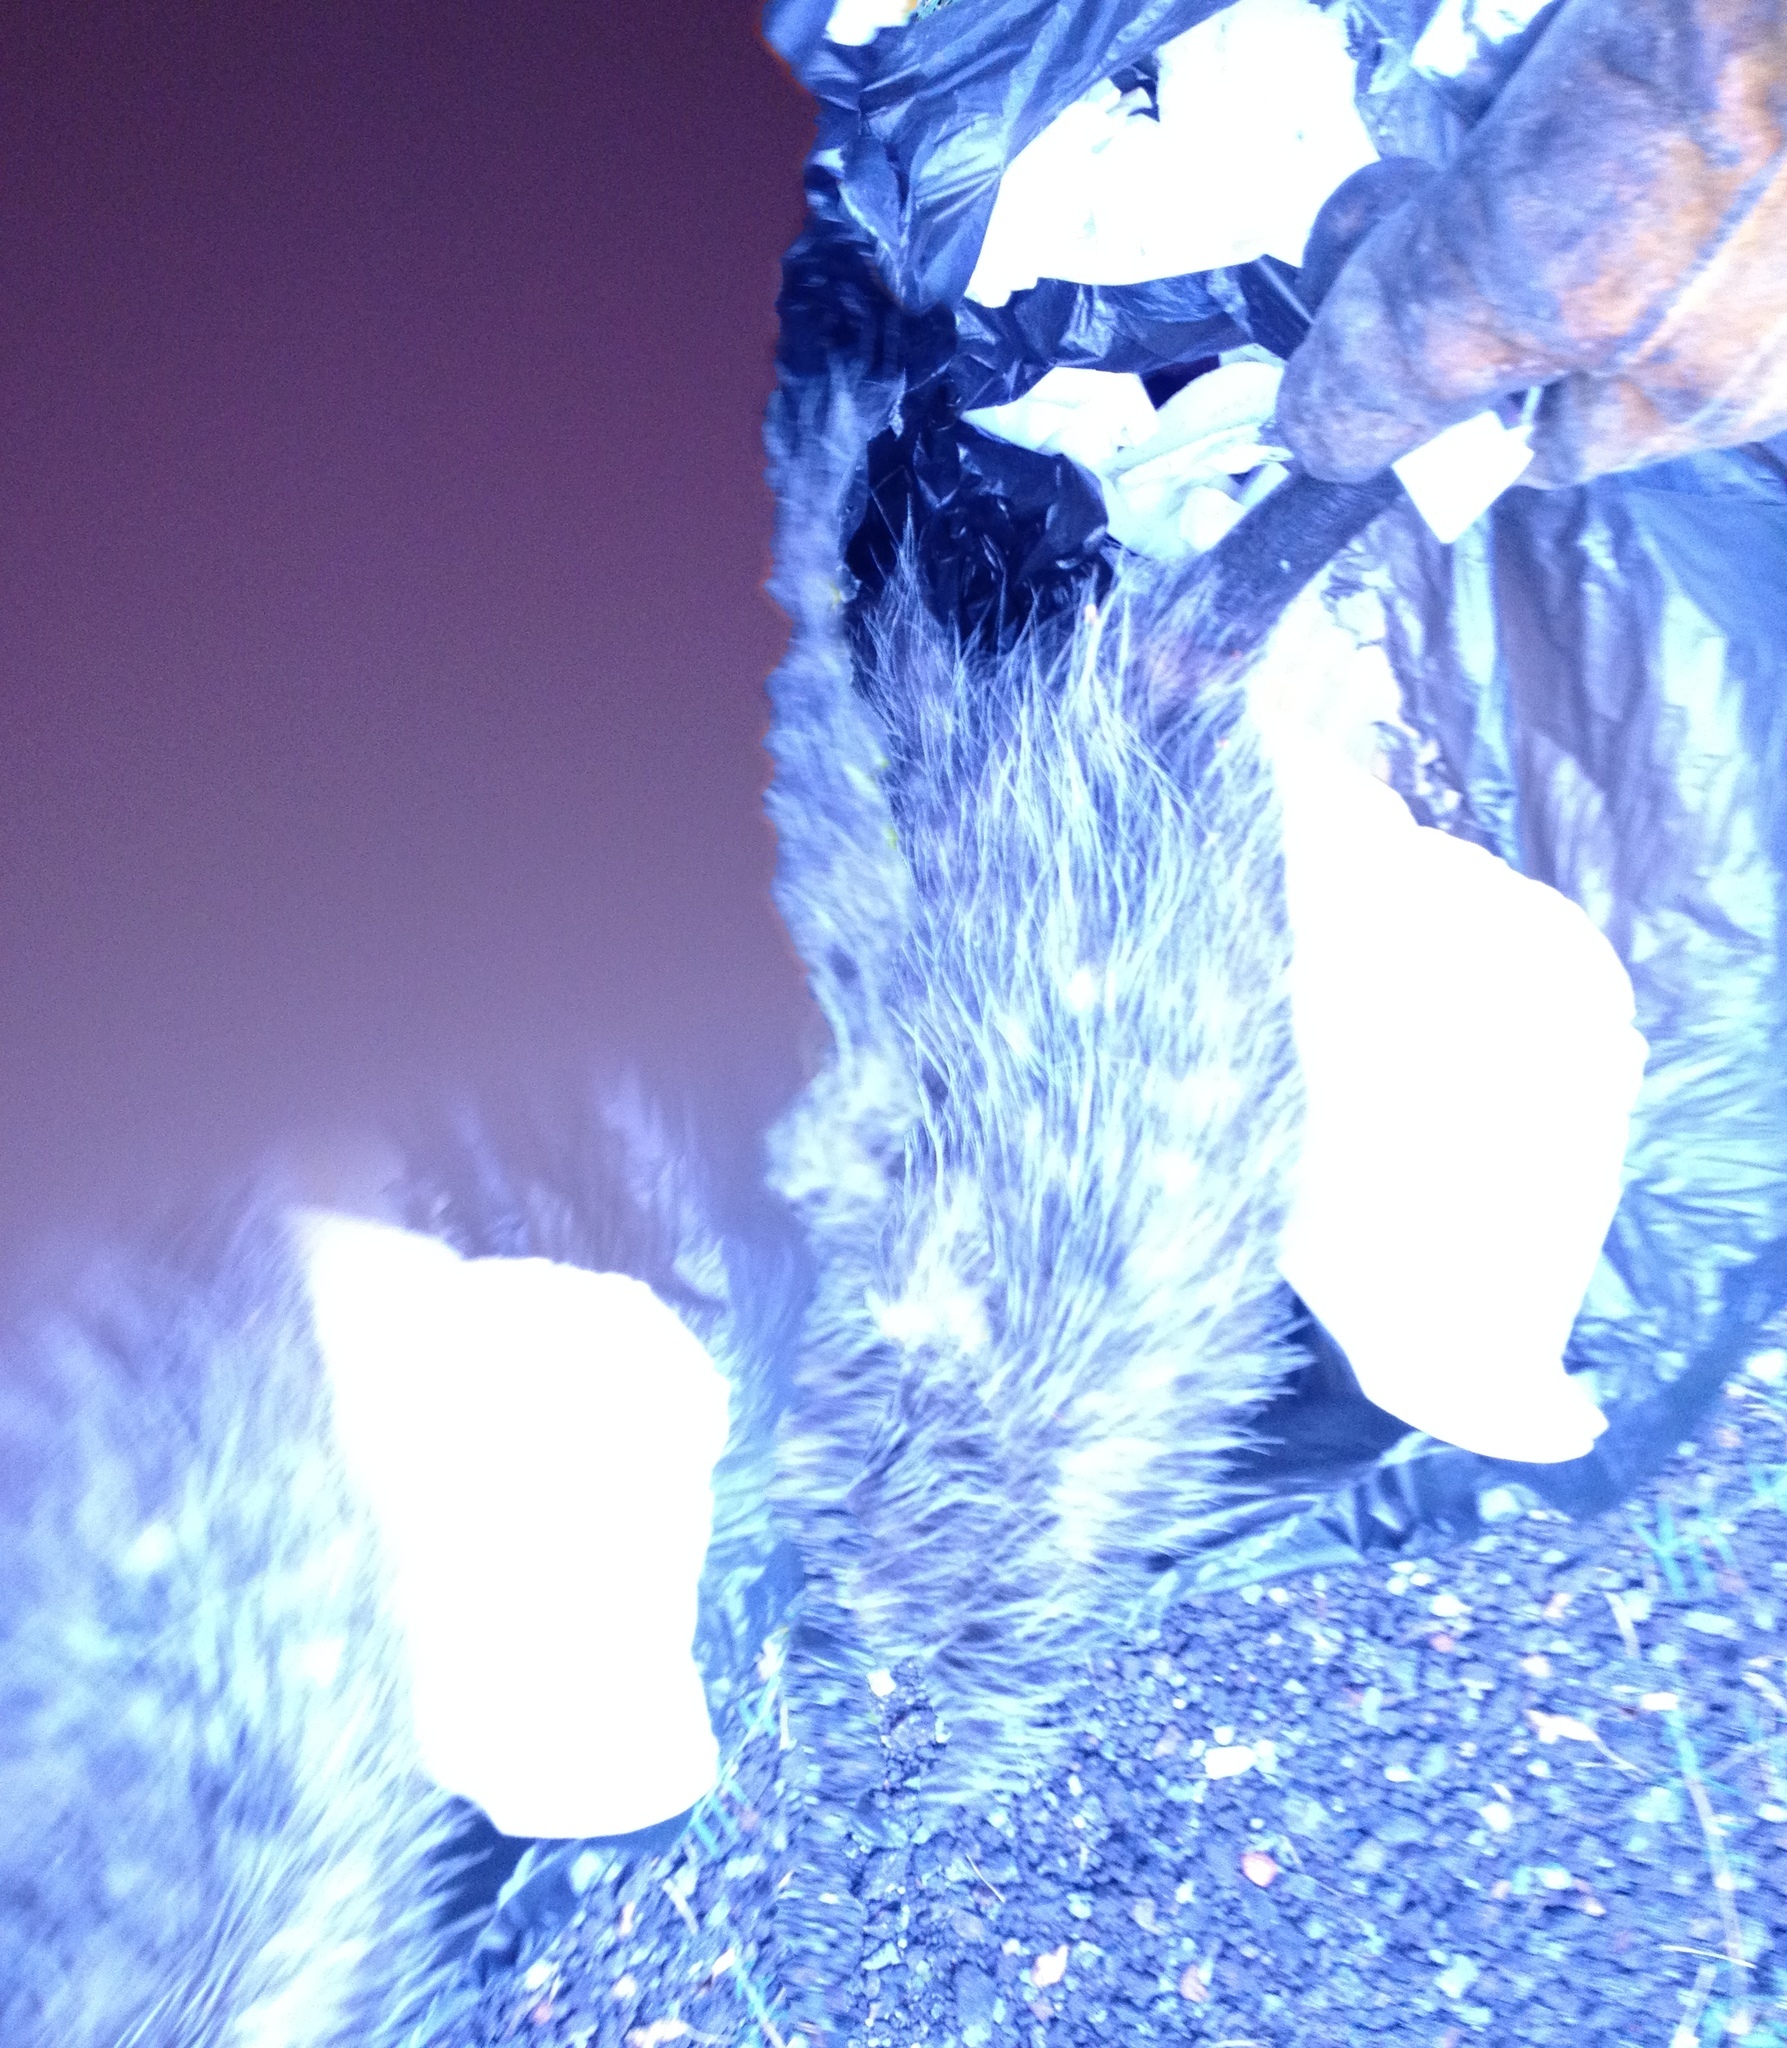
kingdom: Animalia
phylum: Chordata
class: Mammalia
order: Didelphimorphia
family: Didelphidae
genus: Didelphis
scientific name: Didelphis virginiana
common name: Virginia opossum
